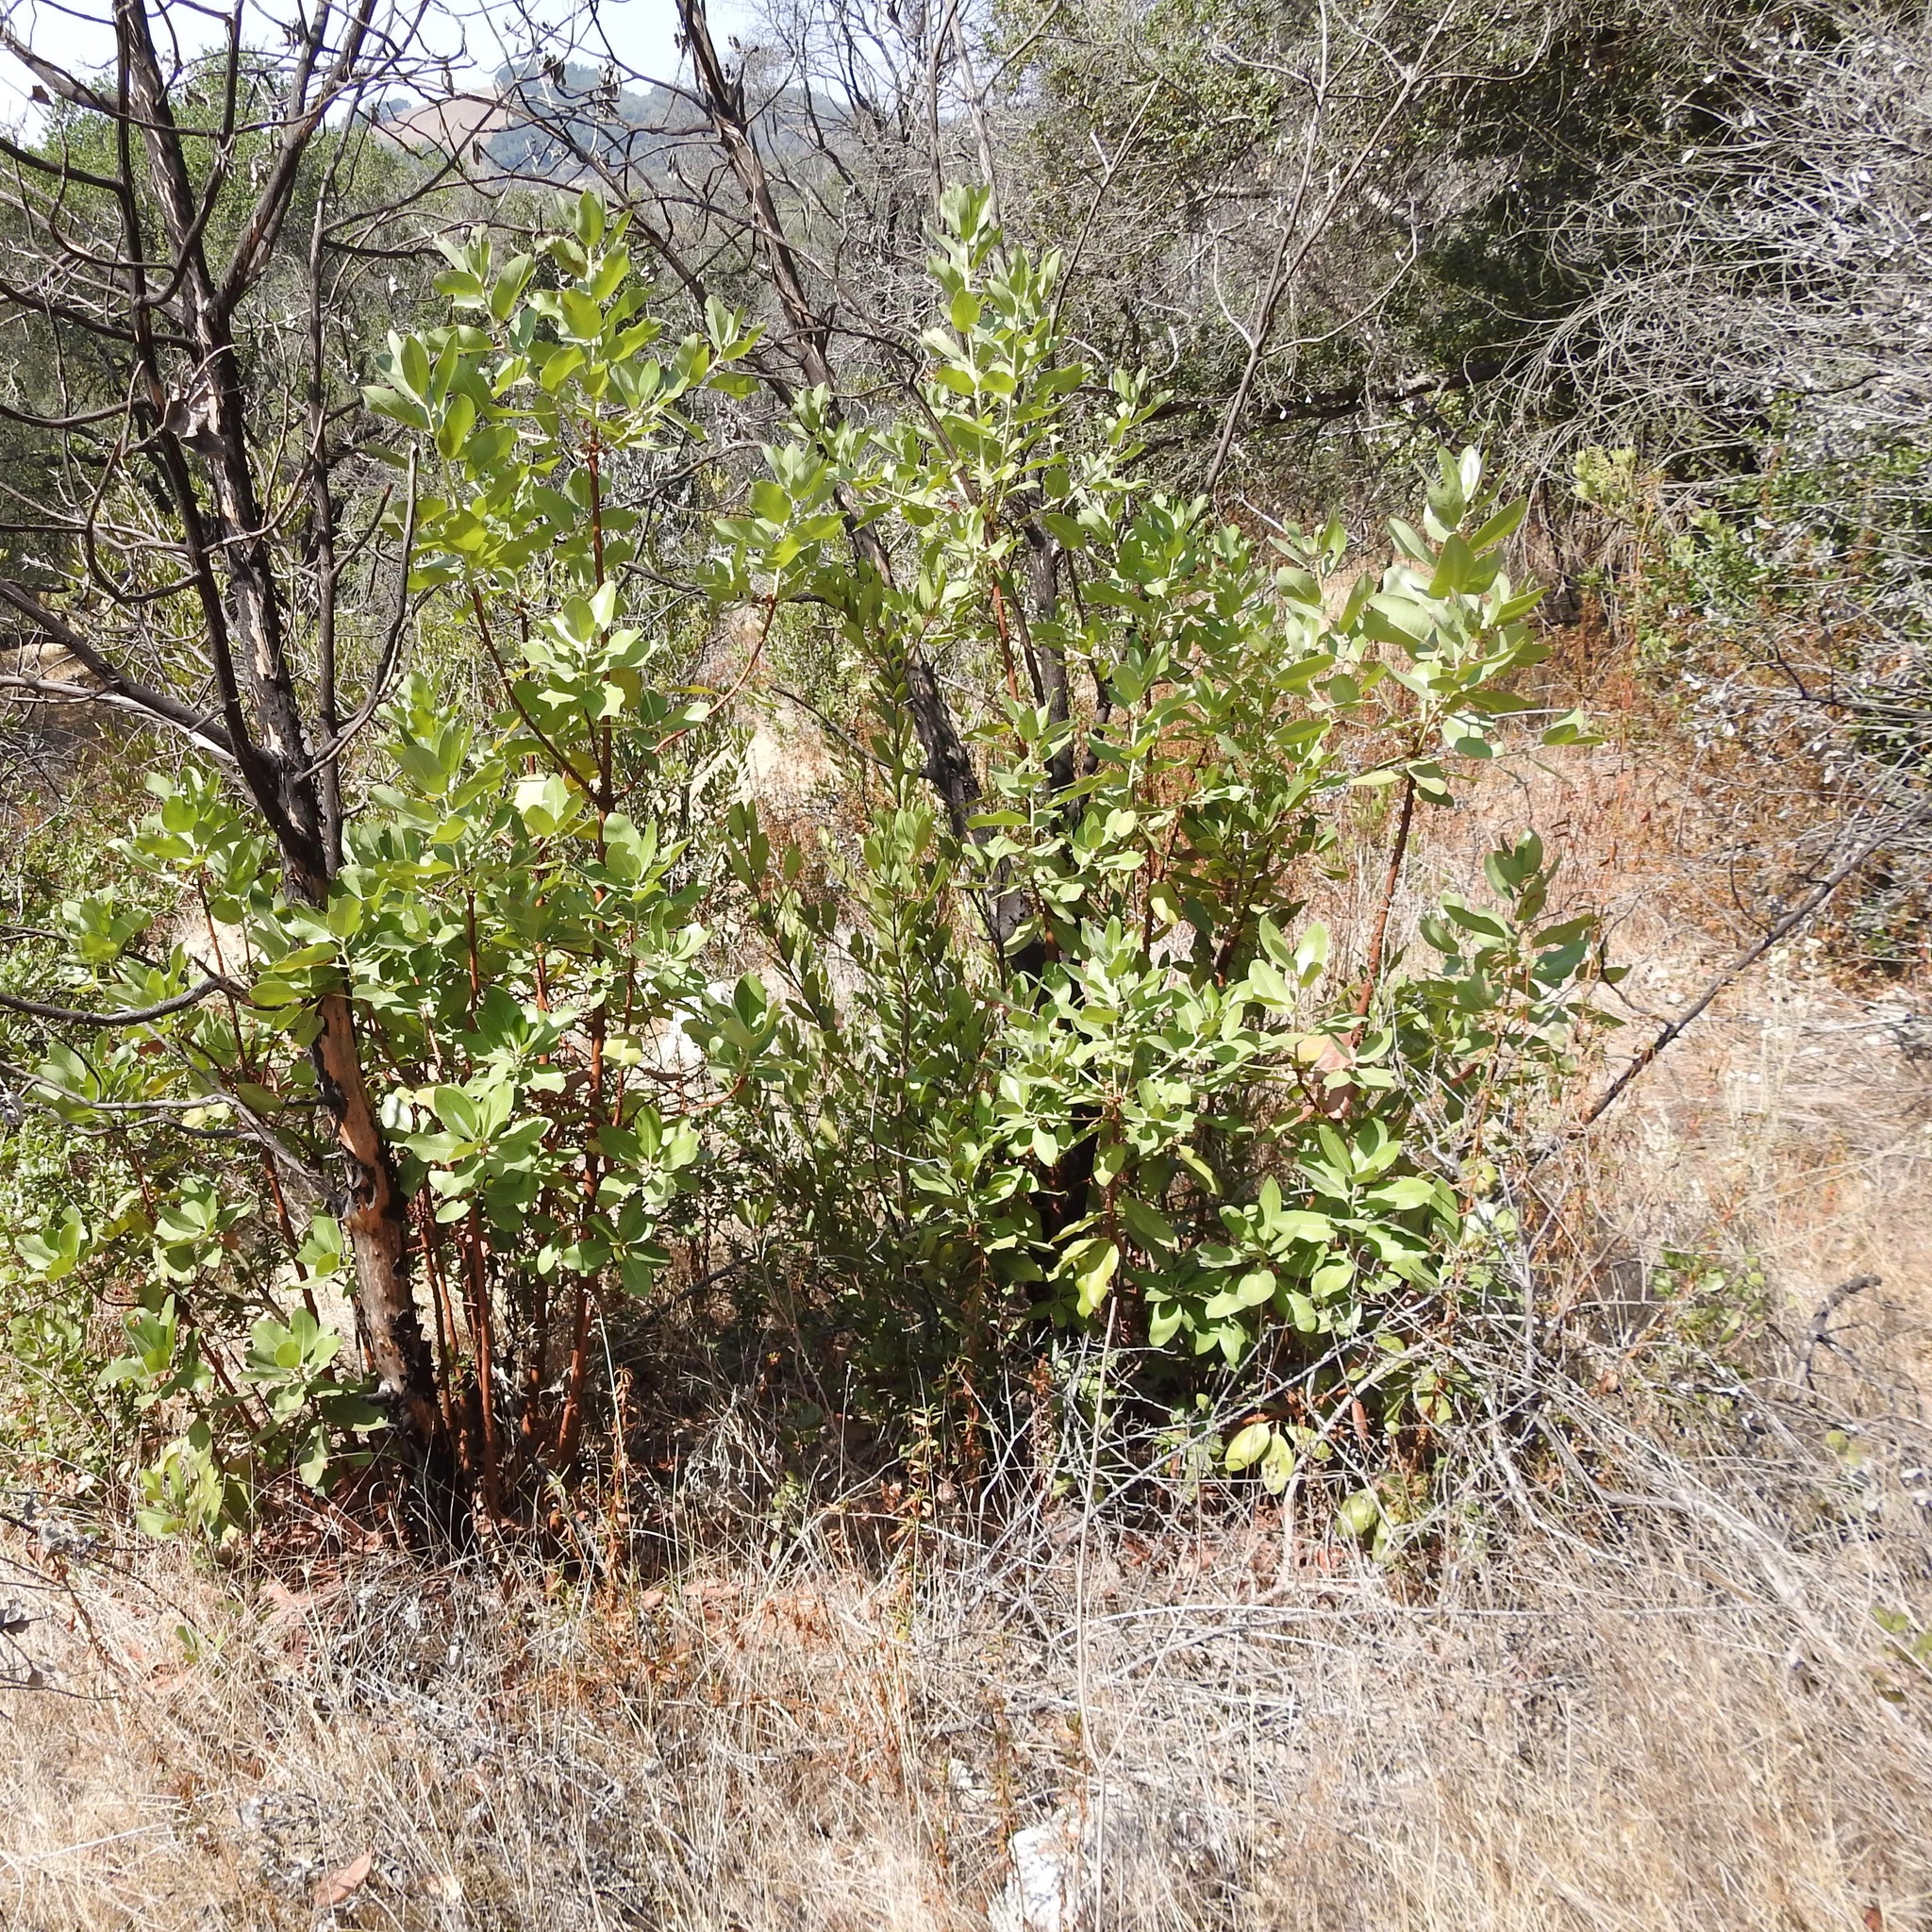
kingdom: Plantae
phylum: Tracheophyta
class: Magnoliopsida
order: Ericales
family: Ericaceae
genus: Arbutus
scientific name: Arbutus menziesii
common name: Pacific madrone
